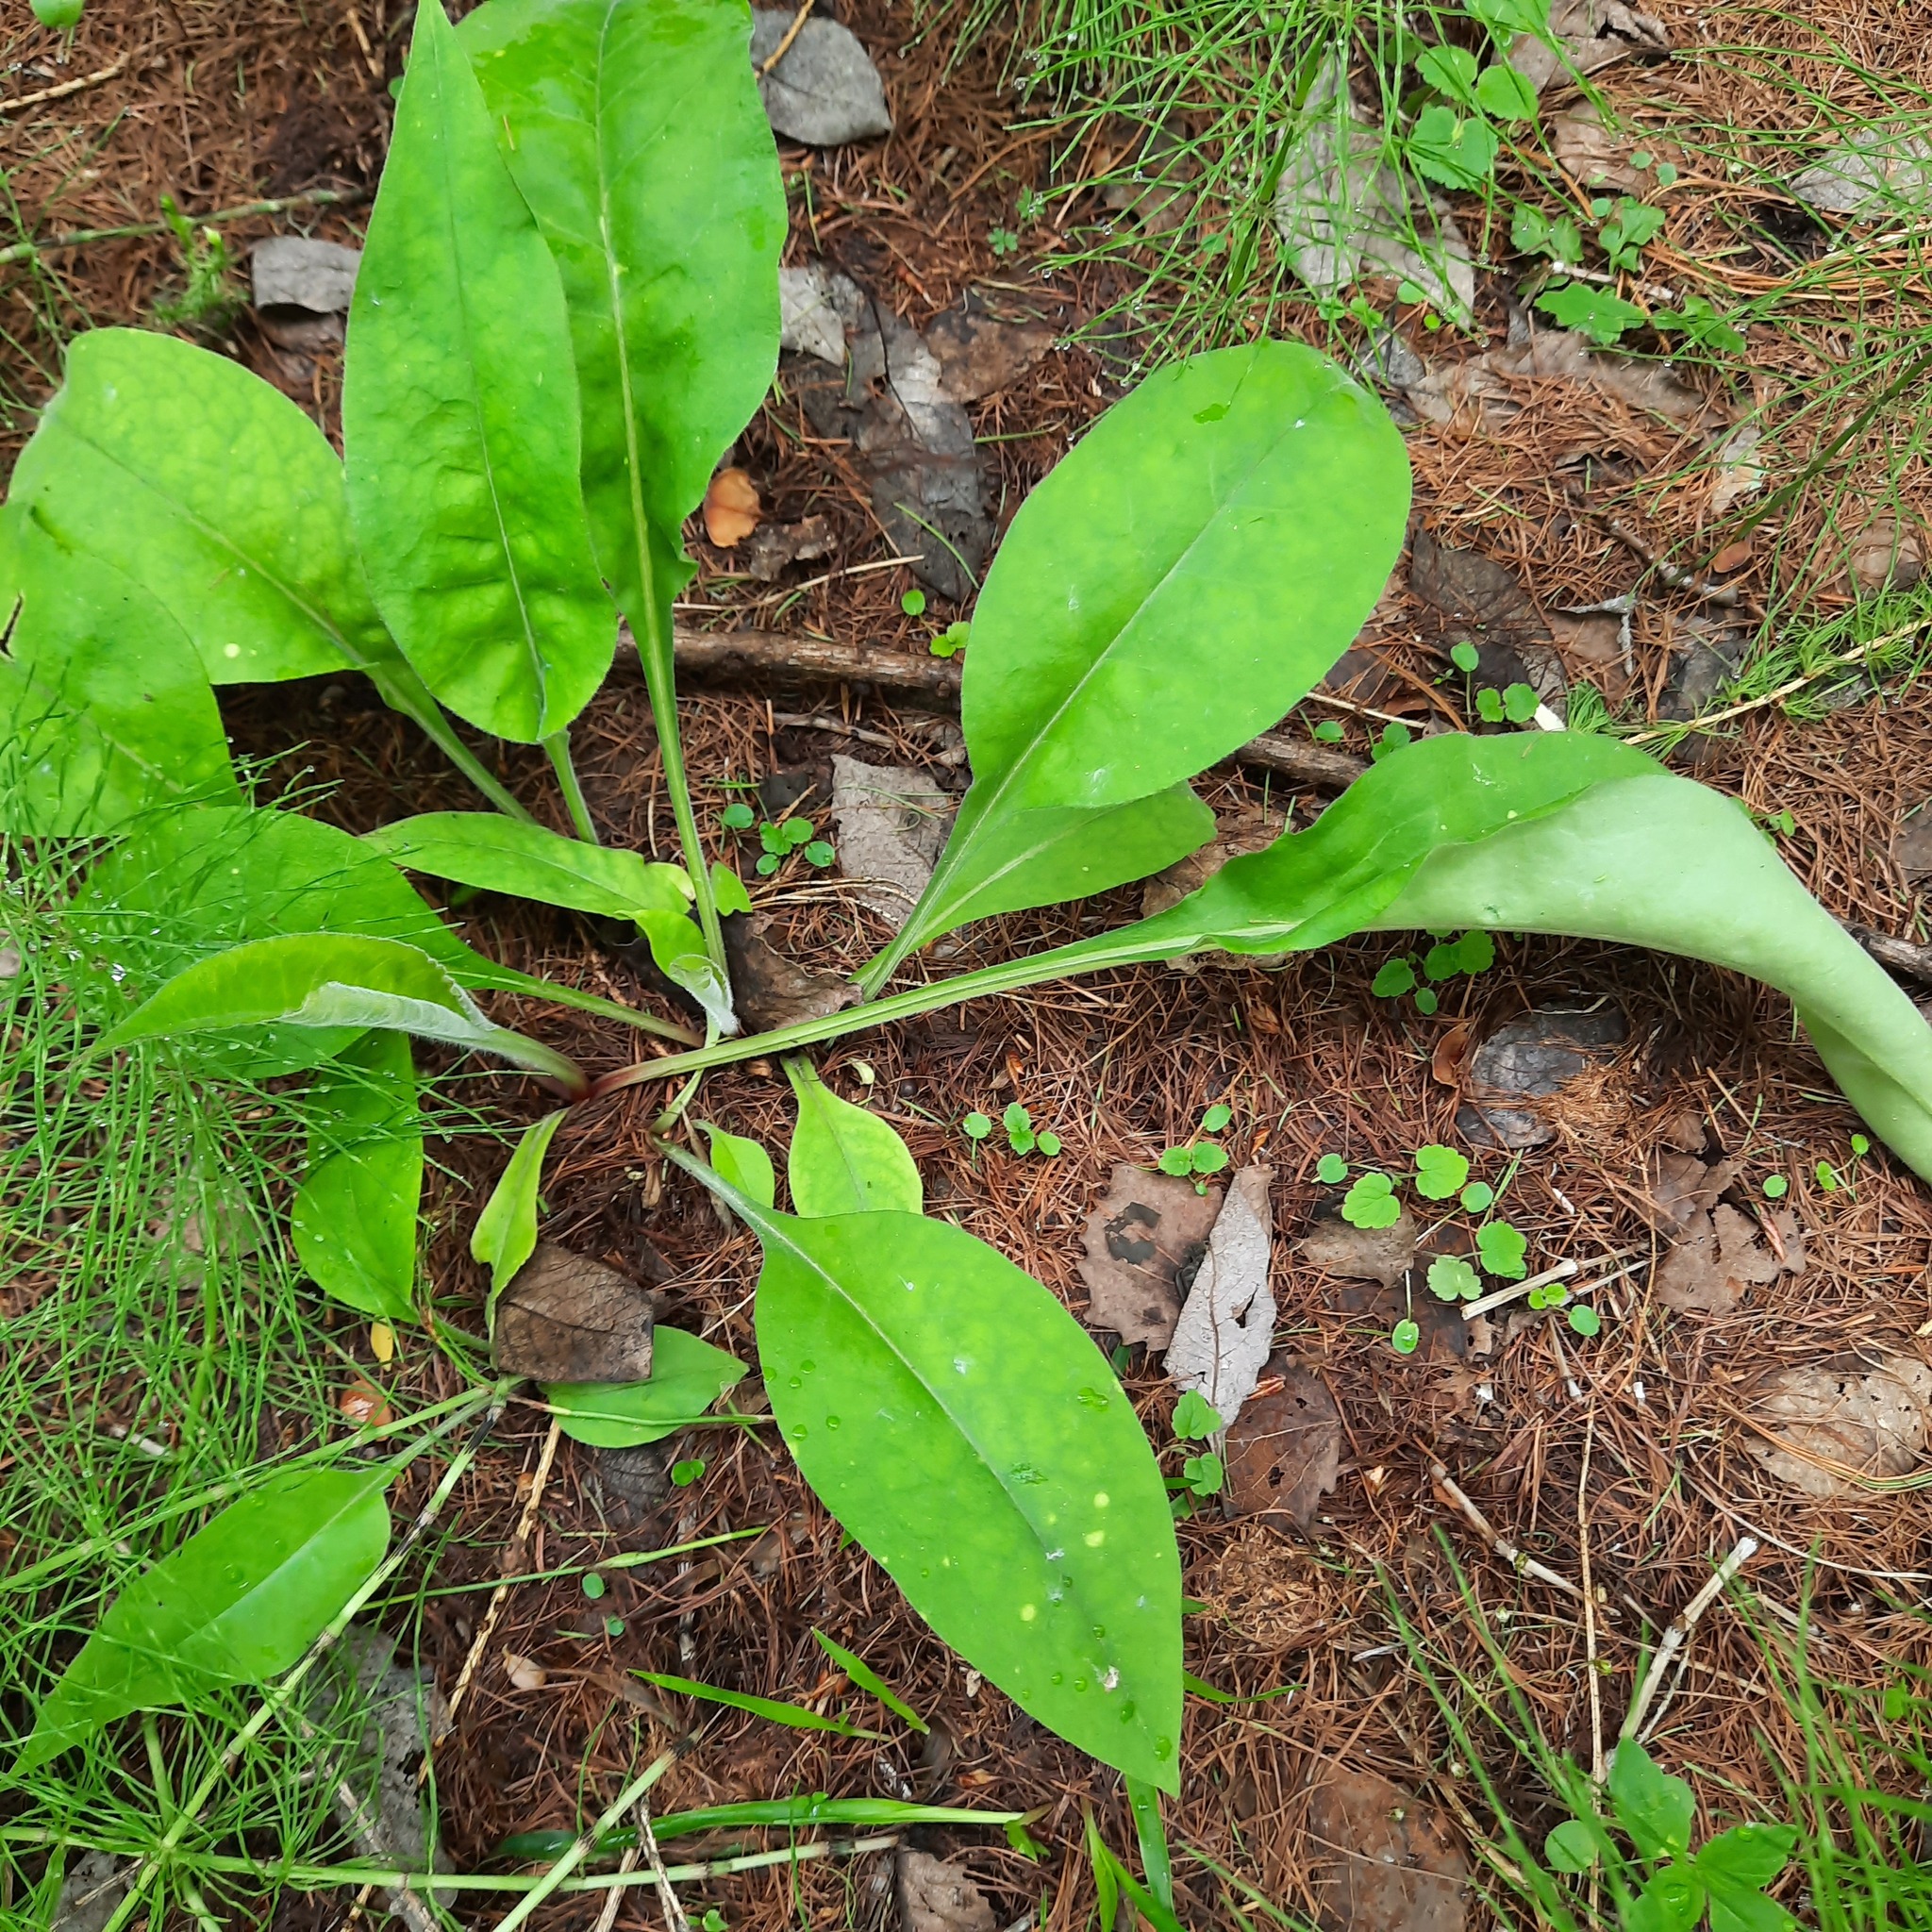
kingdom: Plantae
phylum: Tracheophyta
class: Magnoliopsida
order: Boraginales
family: Boraginaceae
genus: Pulmonaria
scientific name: Pulmonaria mollis
